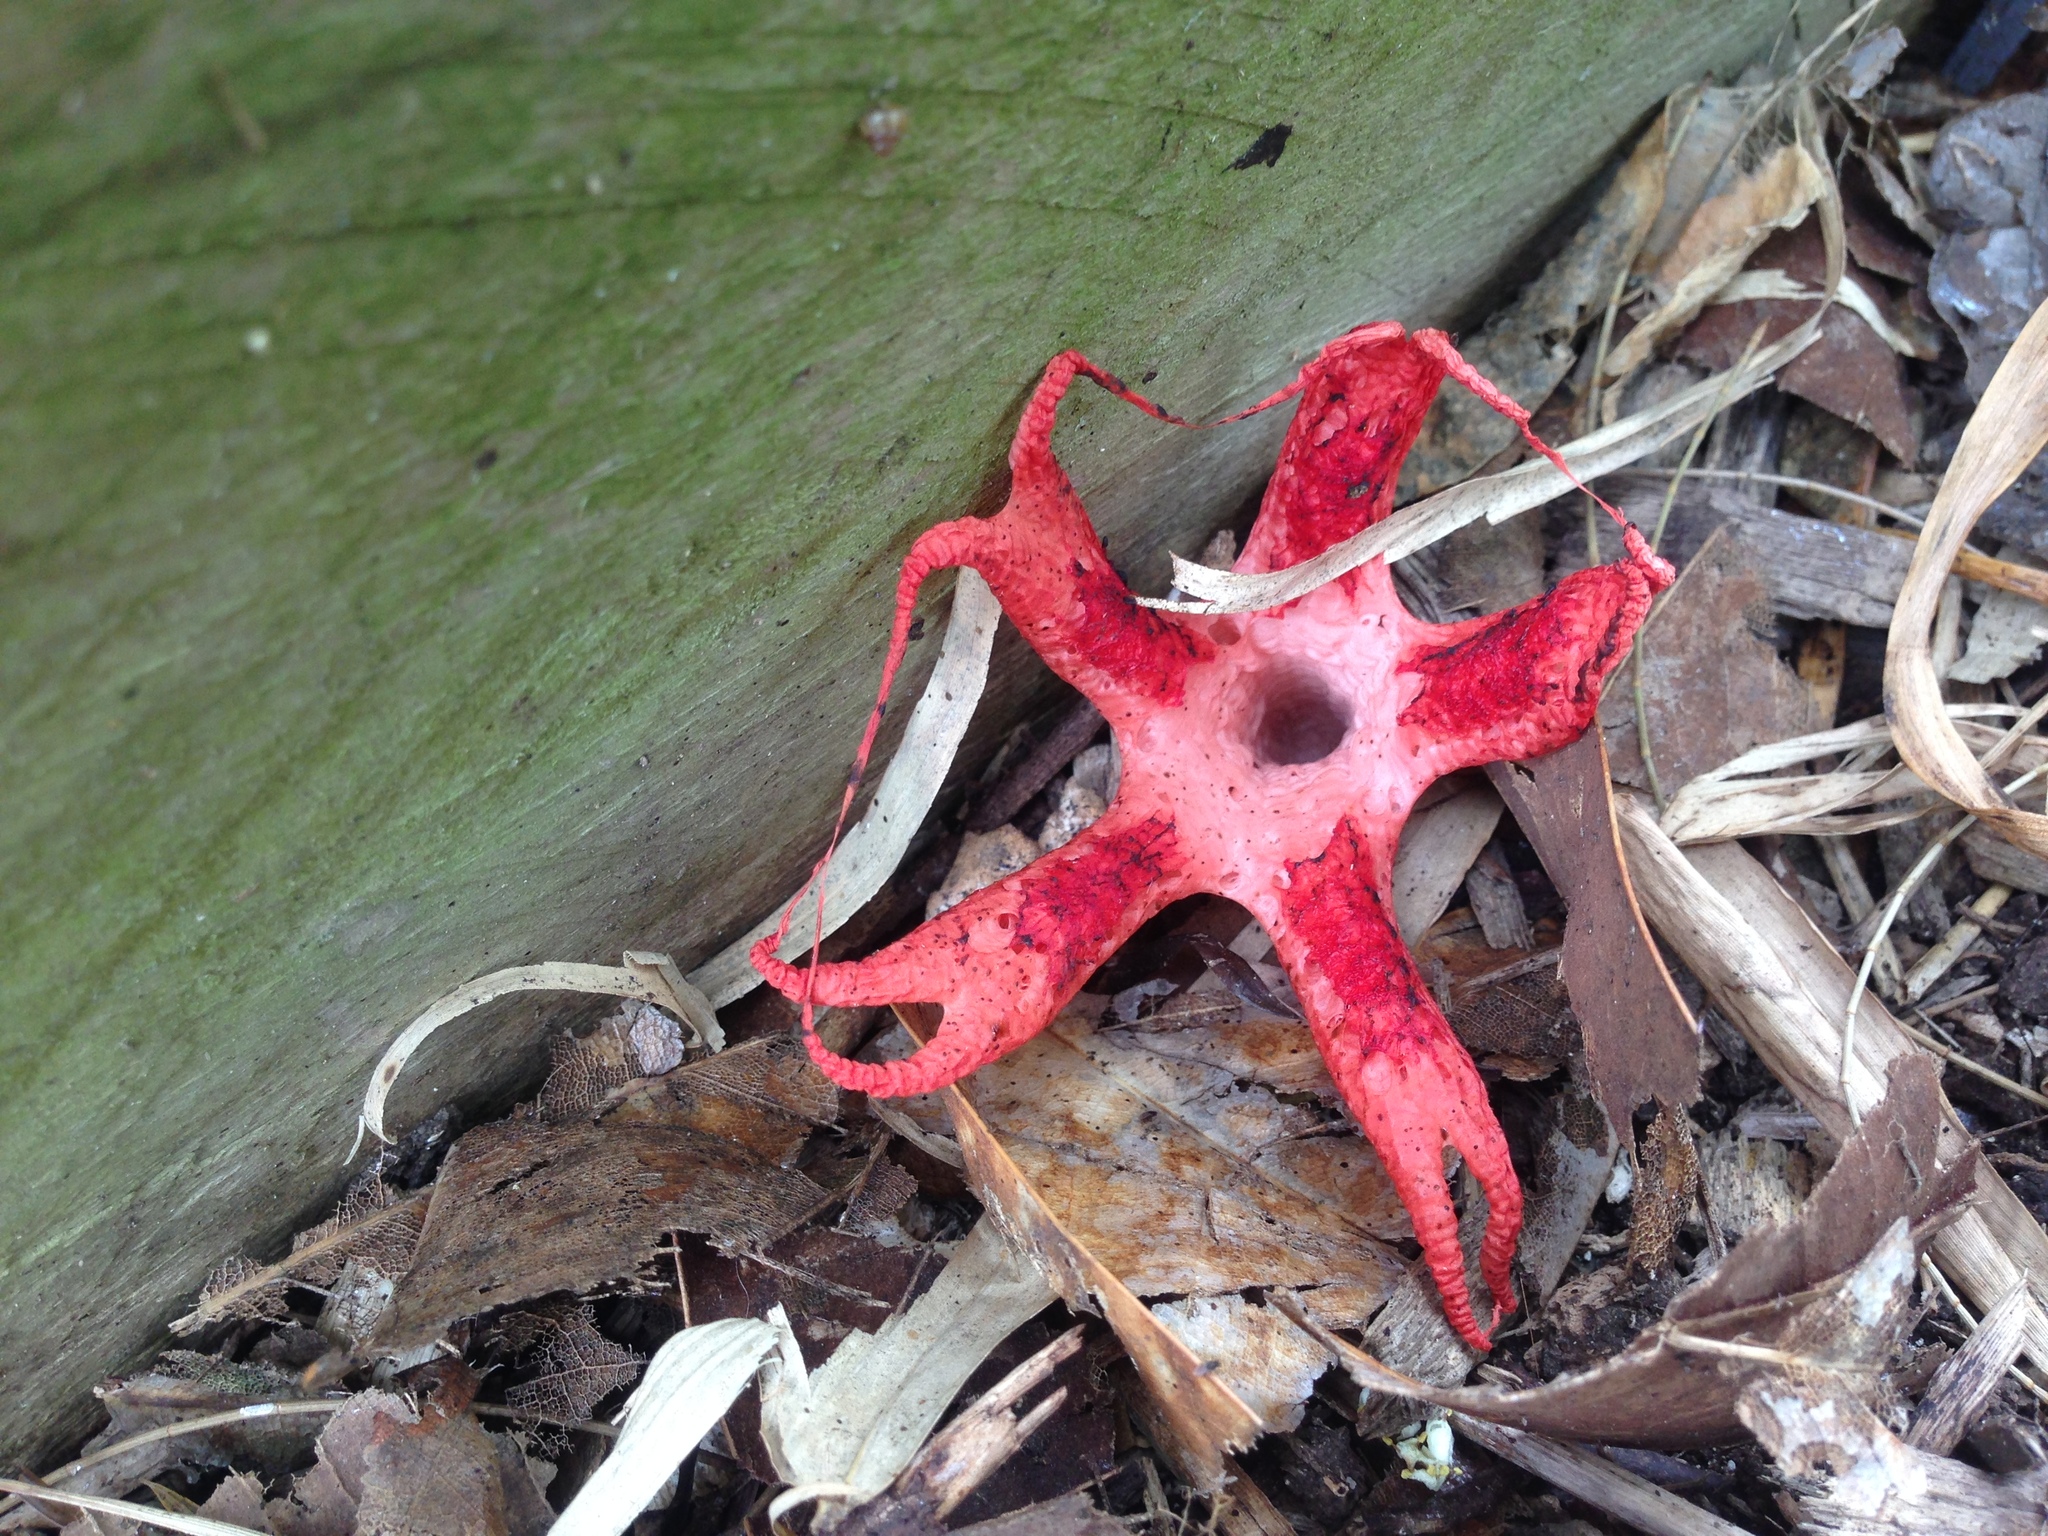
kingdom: Fungi
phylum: Basidiomycota
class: Agaricomycetes
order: Phallales
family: Phallaceae
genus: Clathrus
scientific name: Clathrus archeri
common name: Devil's fingers
